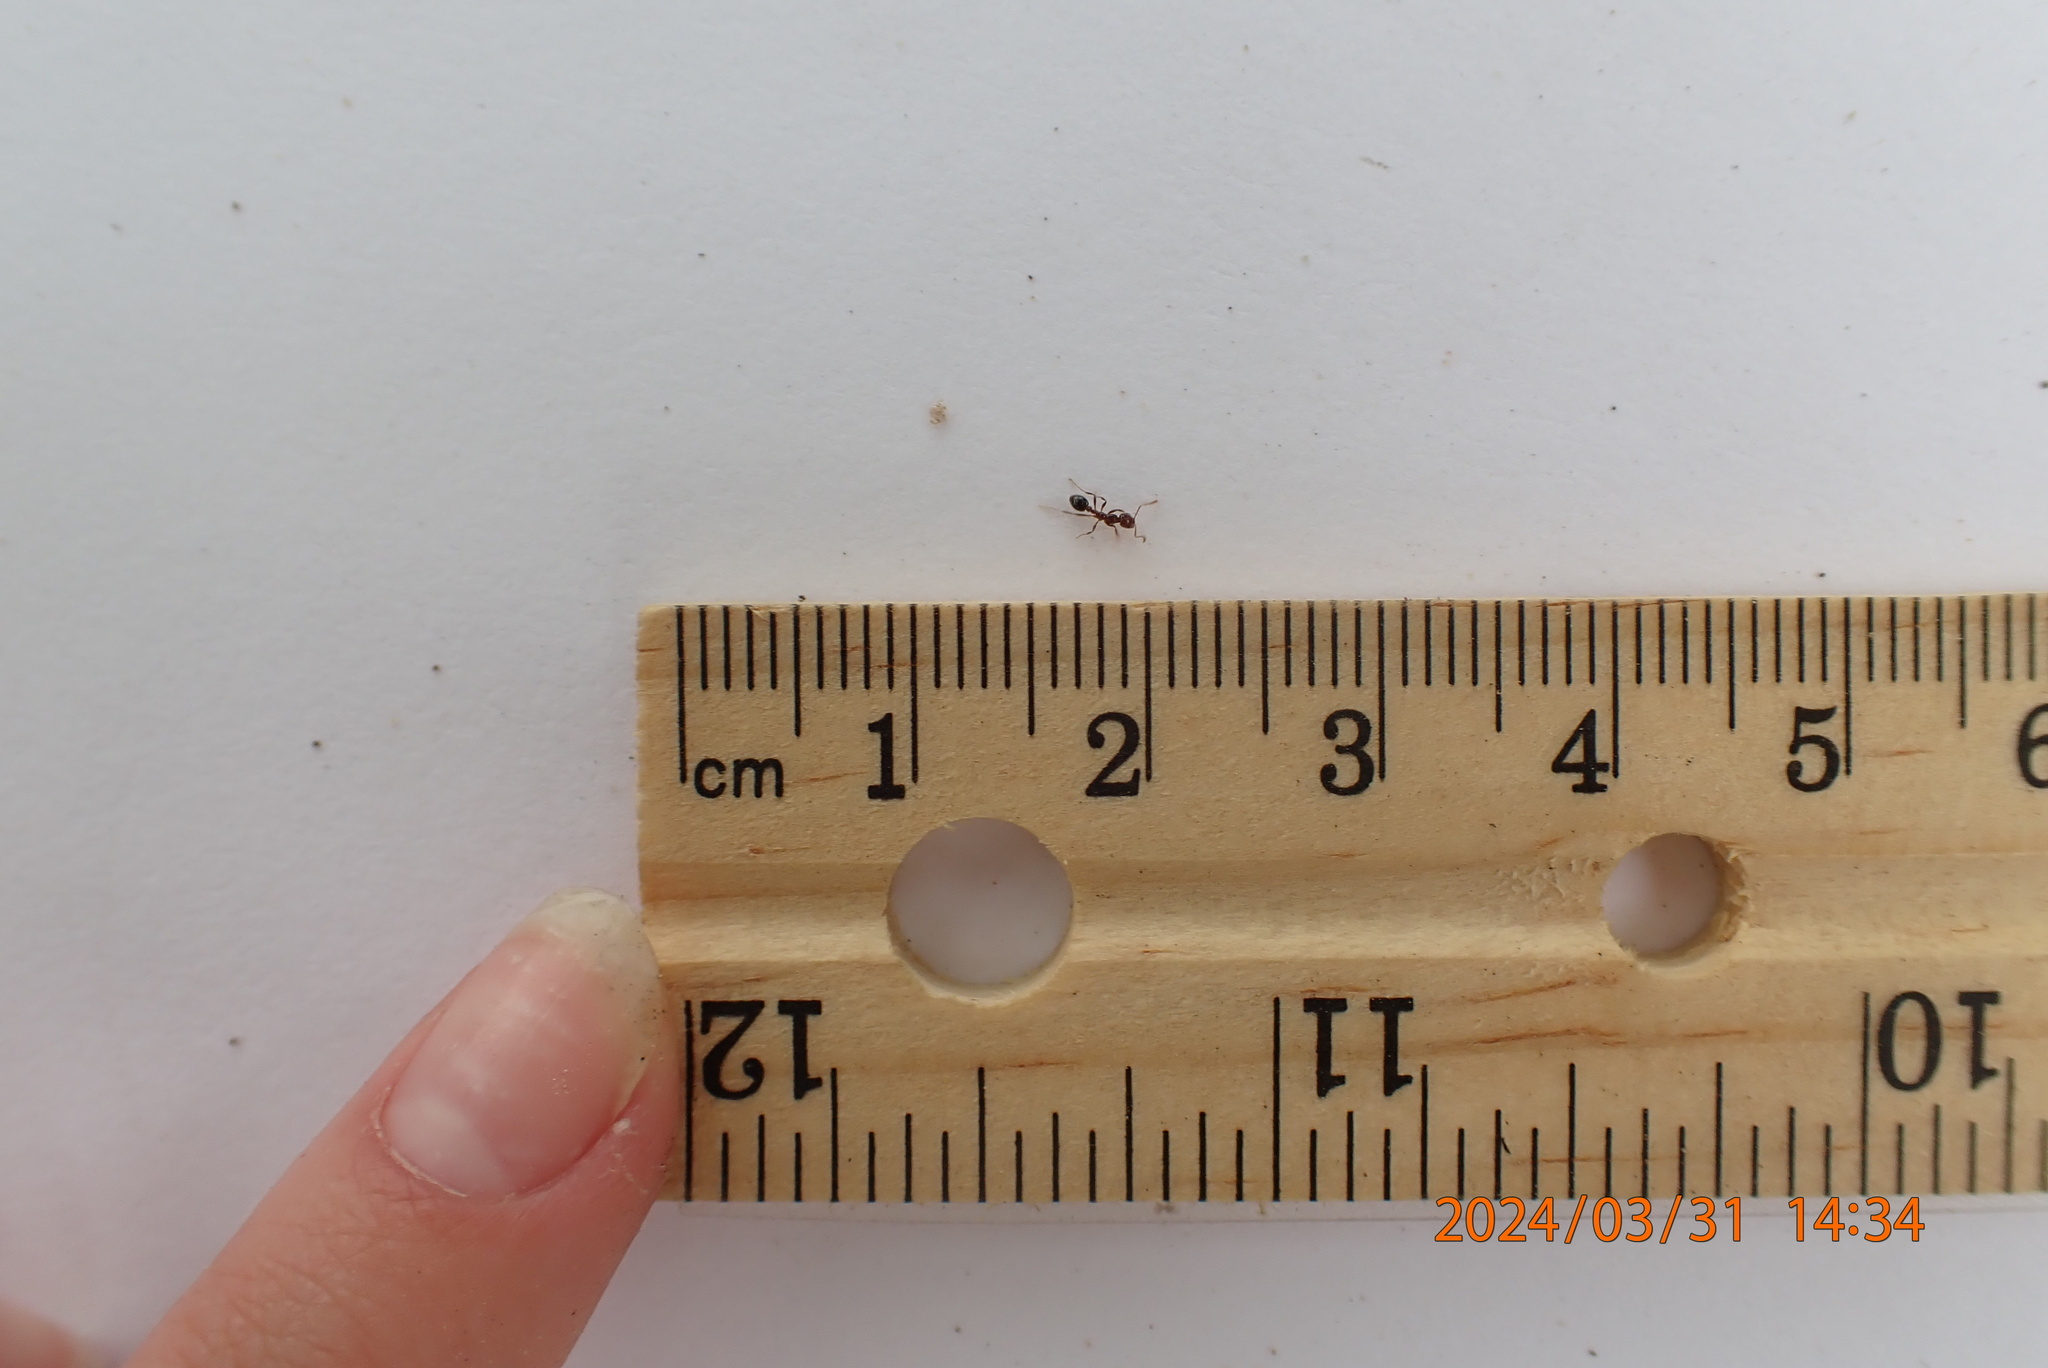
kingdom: Animalia
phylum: Arthropoda
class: Insecta
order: Hymenoptera
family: Formicidae
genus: Solenopsis
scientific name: Solenopsis invicta
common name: Red imported fire ant
